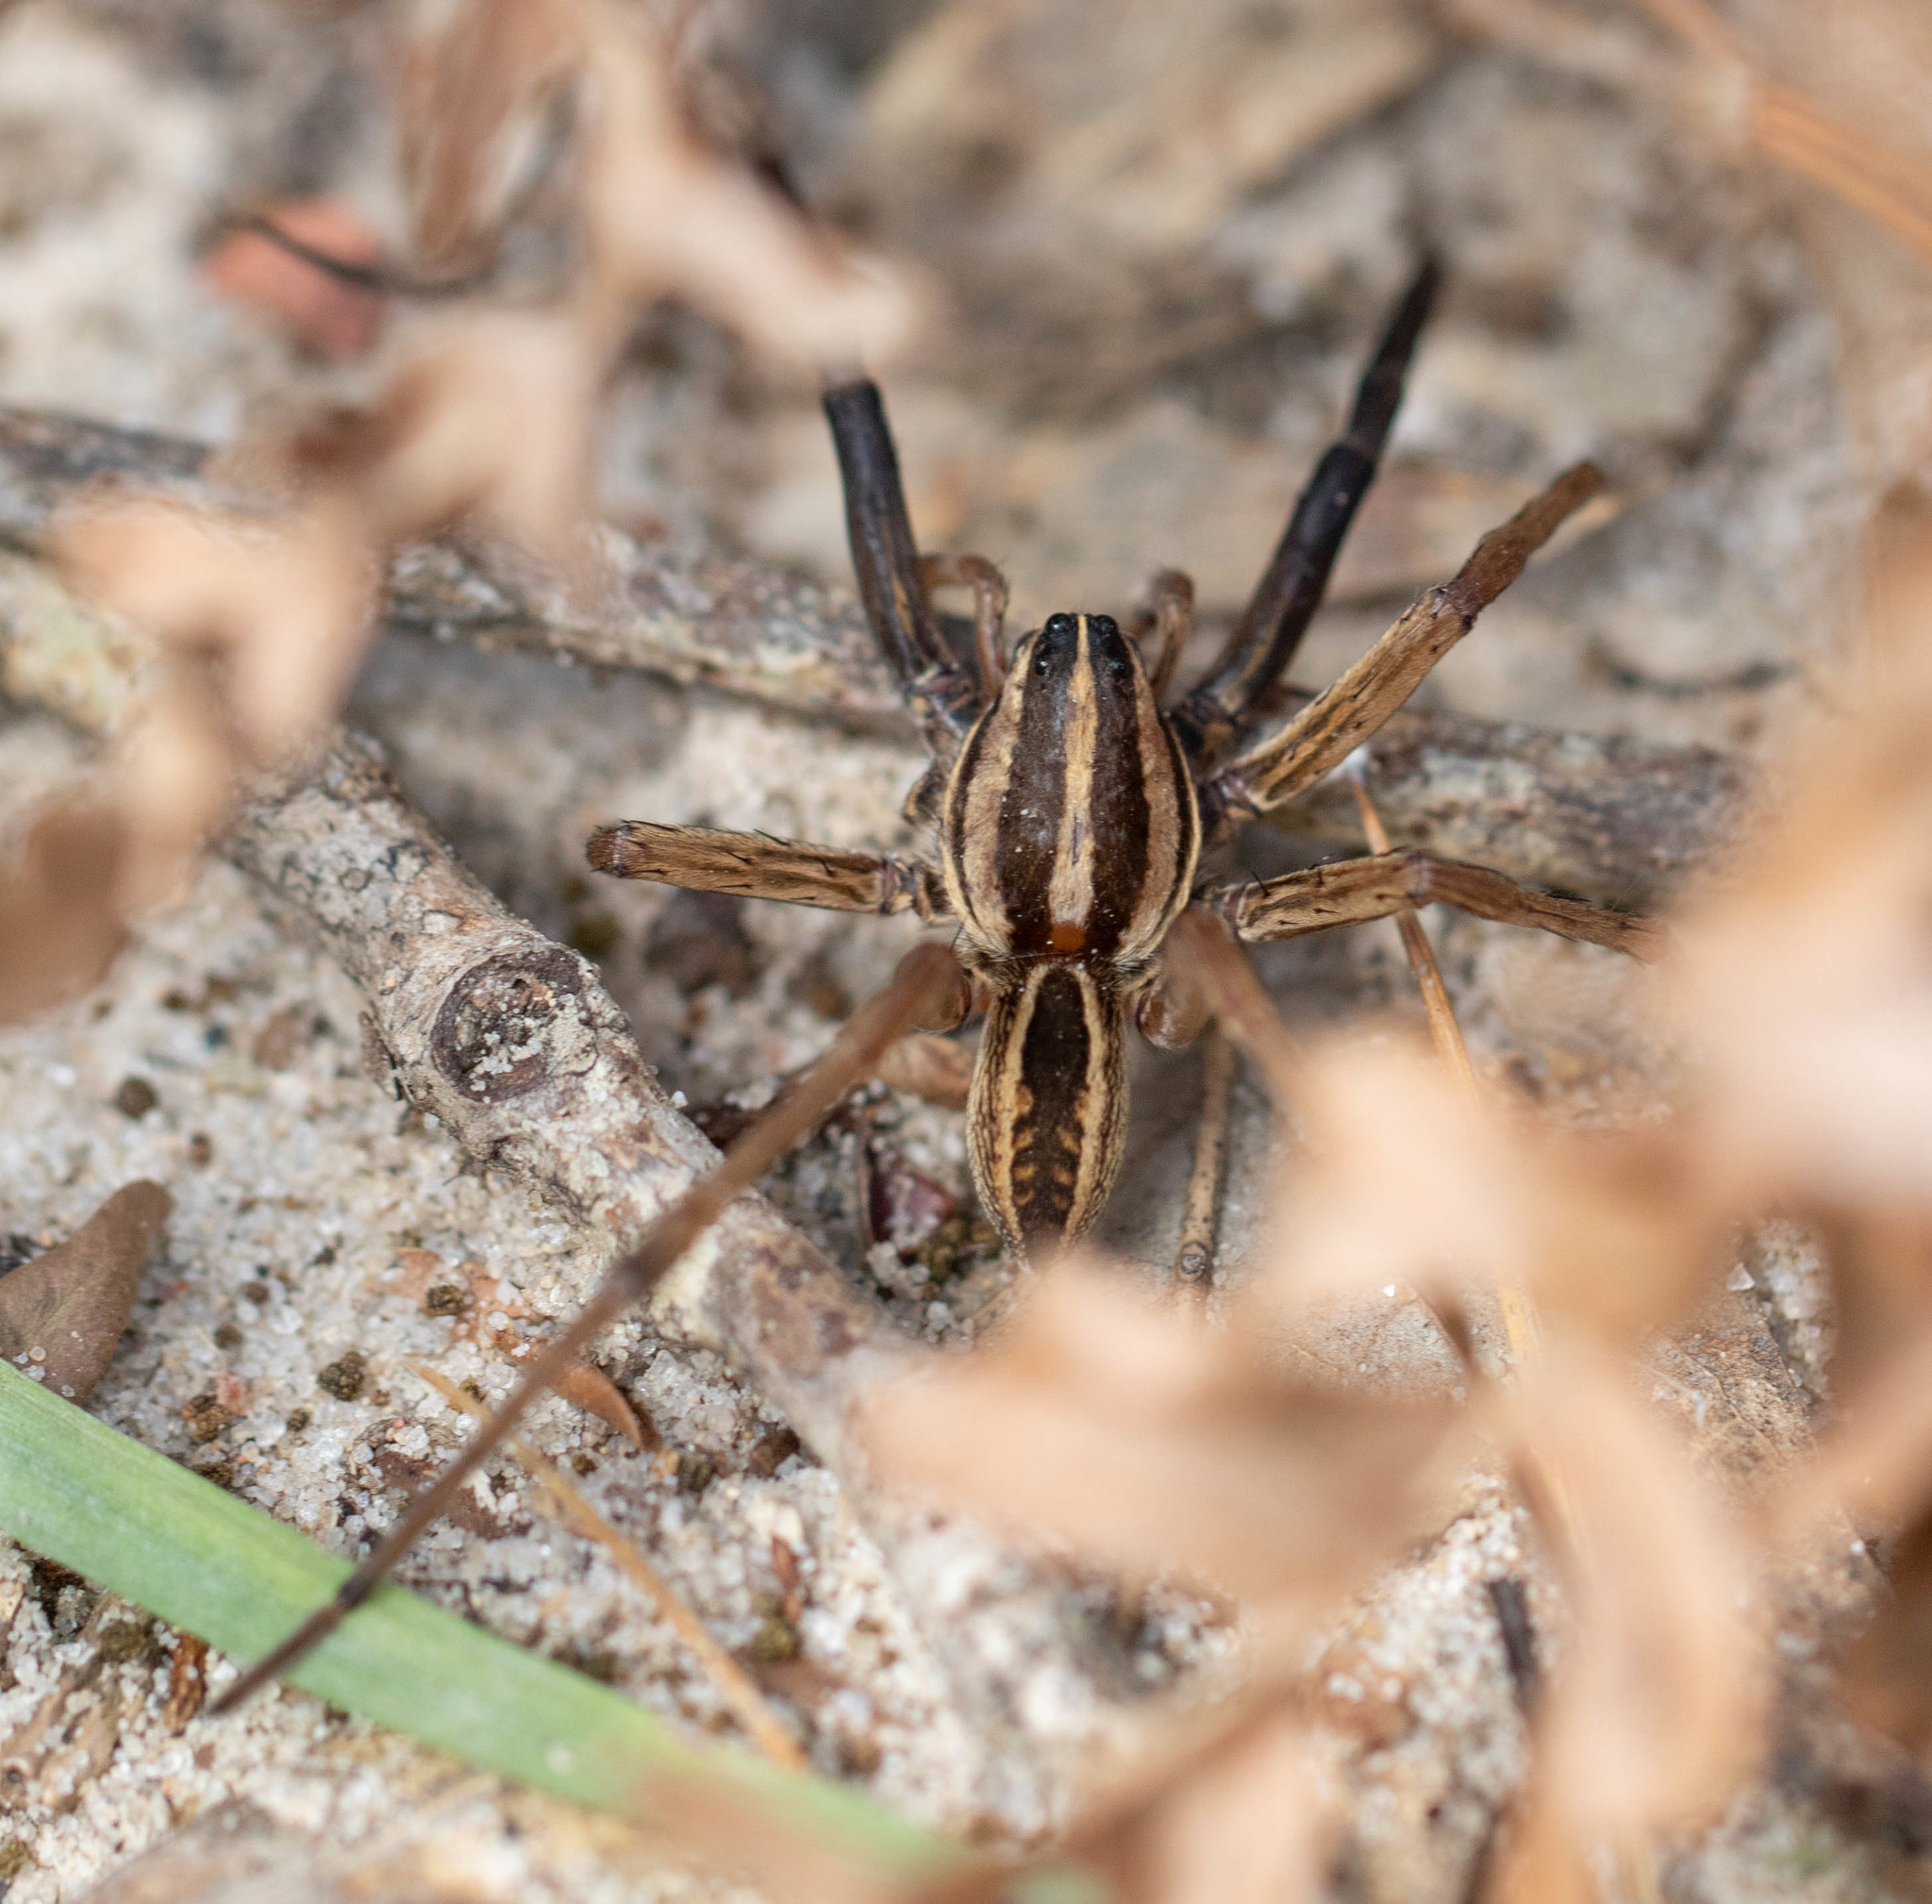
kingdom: Animalia
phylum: Arthropoda
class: Arachnida
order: Araneae
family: Lycosidae
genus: Rabidosa
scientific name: Rabidosa rabida
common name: Rabid wolf spider
